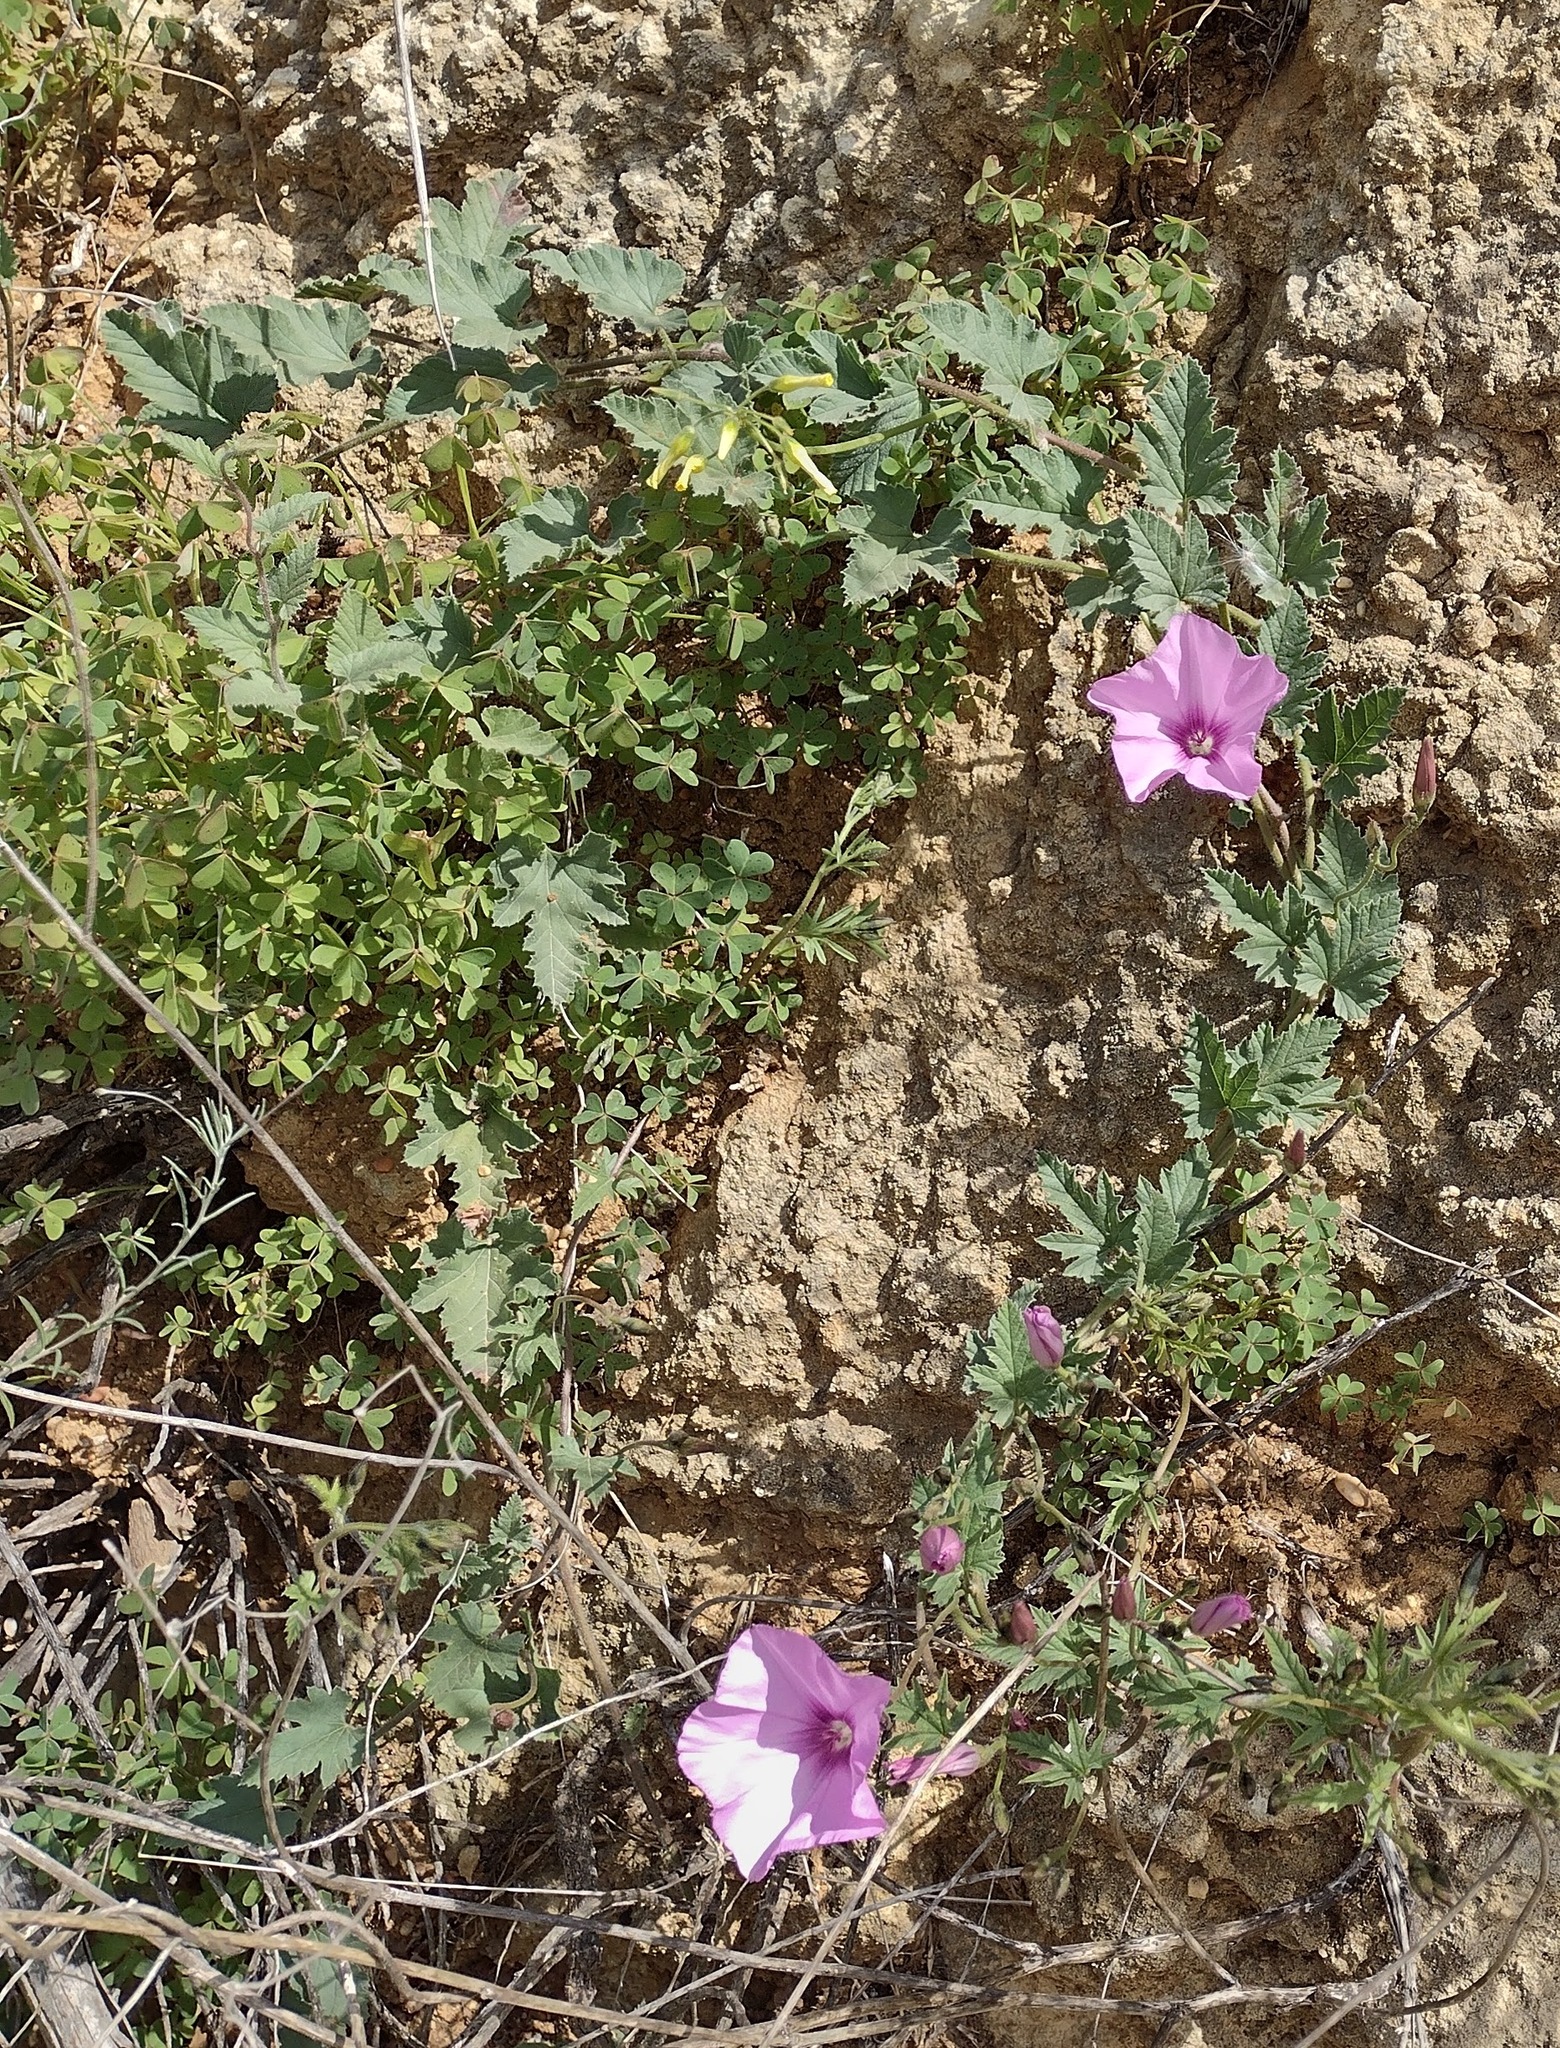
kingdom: Plantae
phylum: Tracheophyta
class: Magnoliopsida
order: Solanales
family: Convolvulaceae
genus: Convolvulus
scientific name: Convolvulus althaeoides
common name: Mallow bindweed
